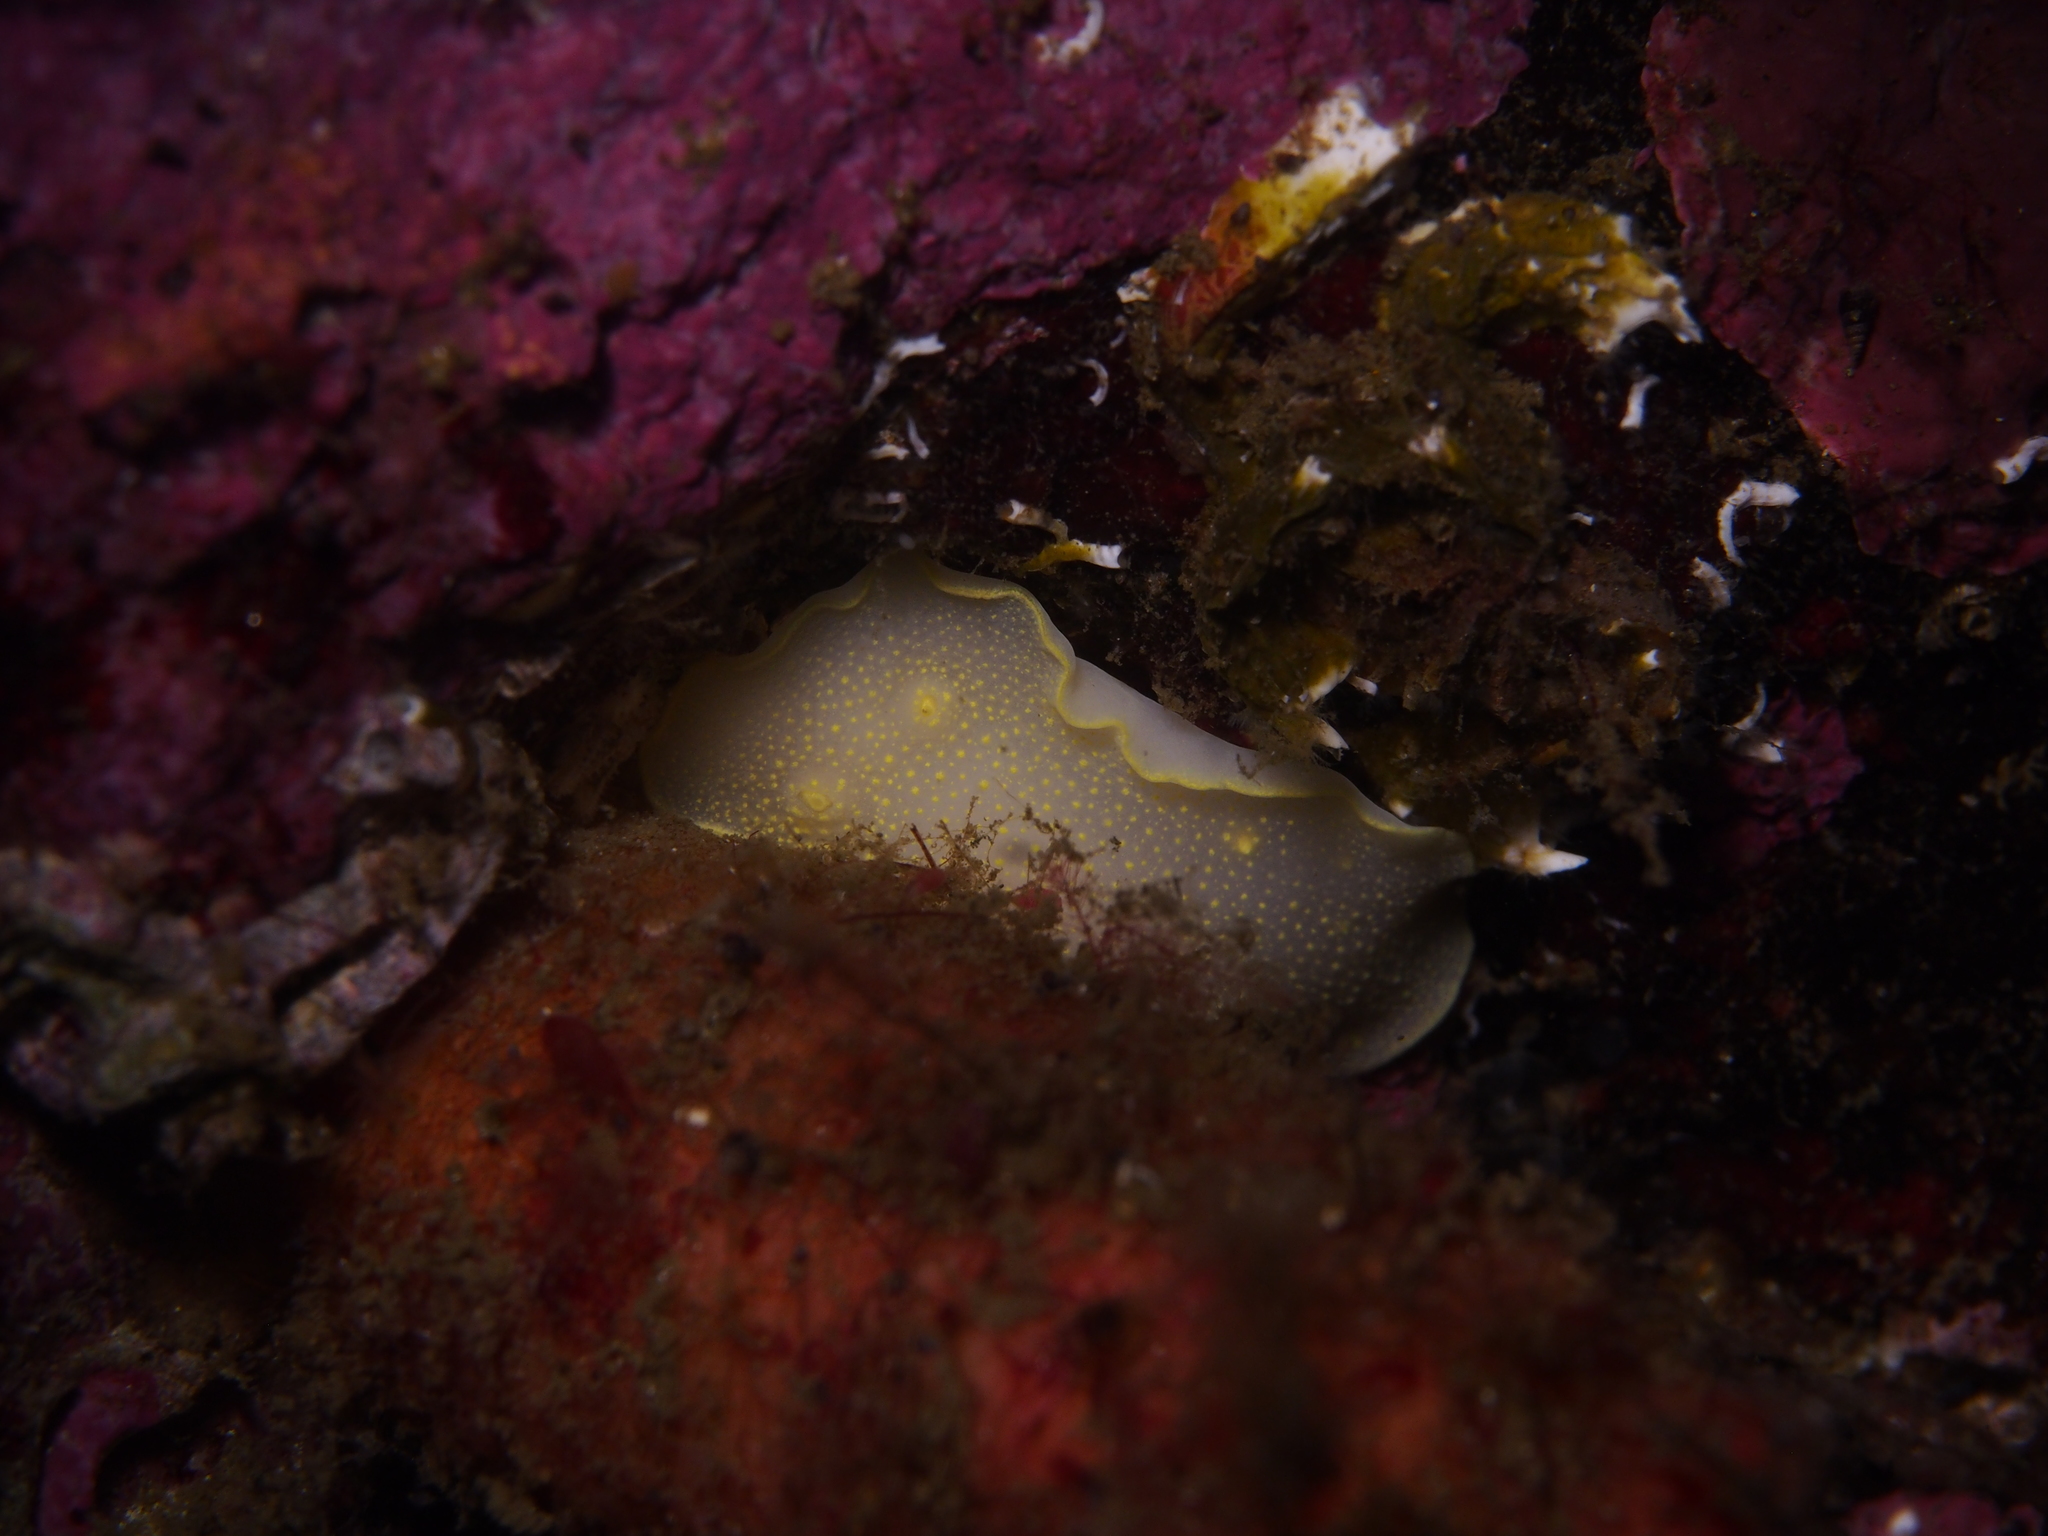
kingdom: Animalia
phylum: Mollusca
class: Gastropoda
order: Nudibranchia
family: Cadlinidae
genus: Cadlina
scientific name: Cadlina laevis
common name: White atlantic cadlina
